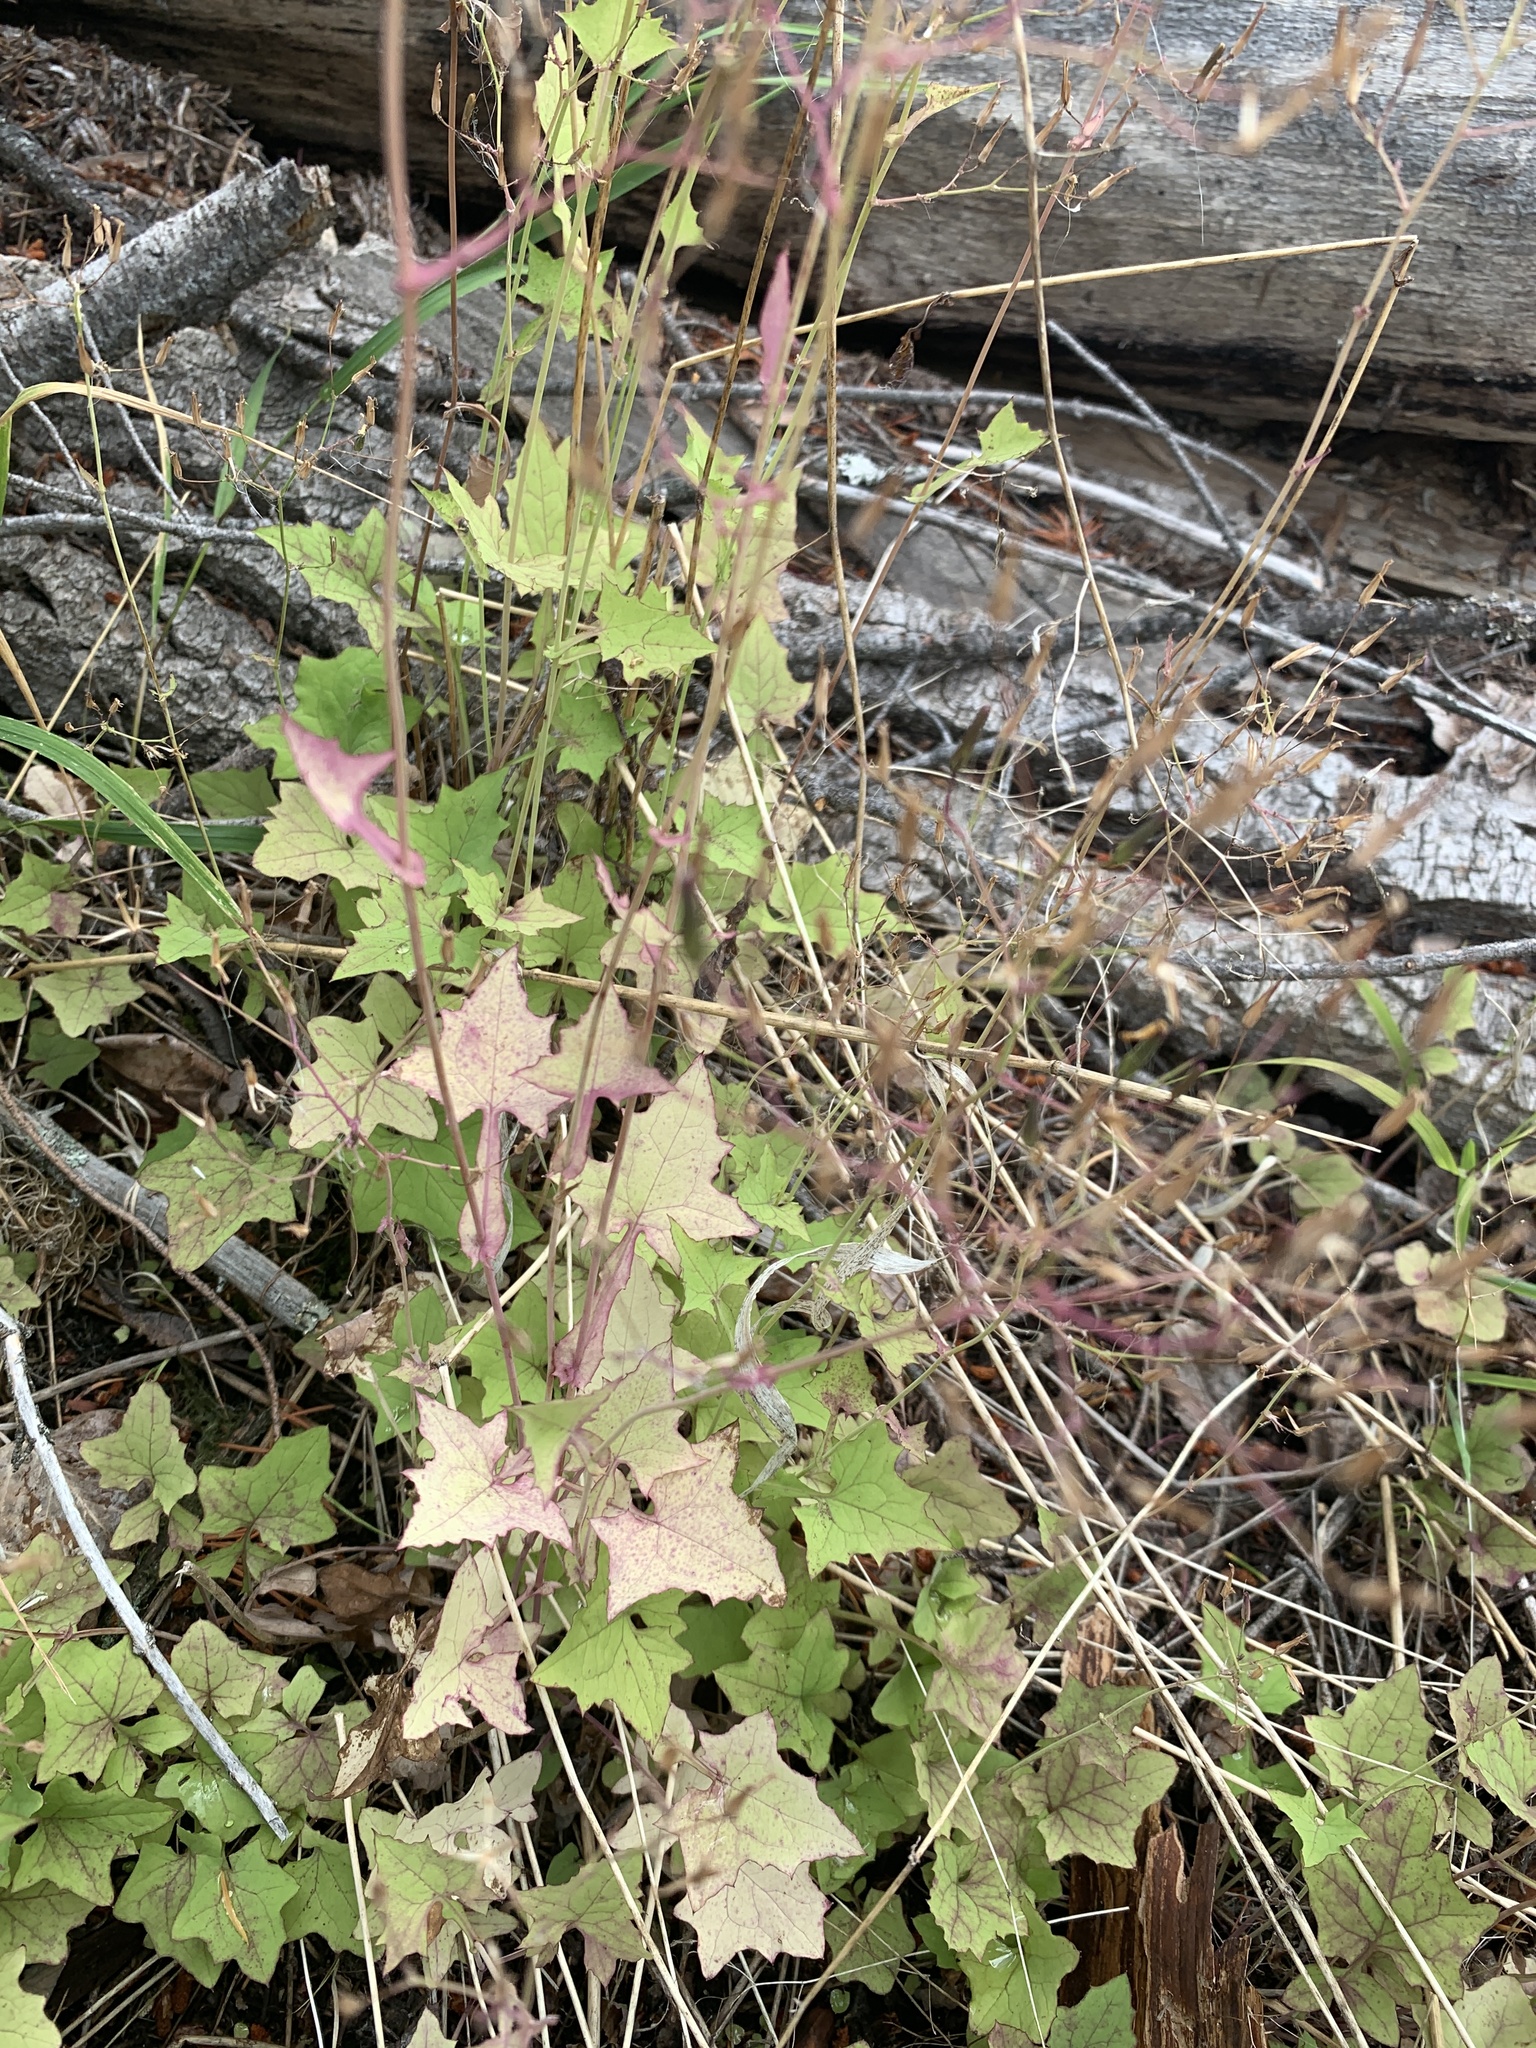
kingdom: Plantae
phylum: Tracheophyta
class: Magnoliopsida
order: Asterales
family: Asteraceae
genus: Mycelis
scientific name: Mycelis muralis
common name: Wall lettuce
